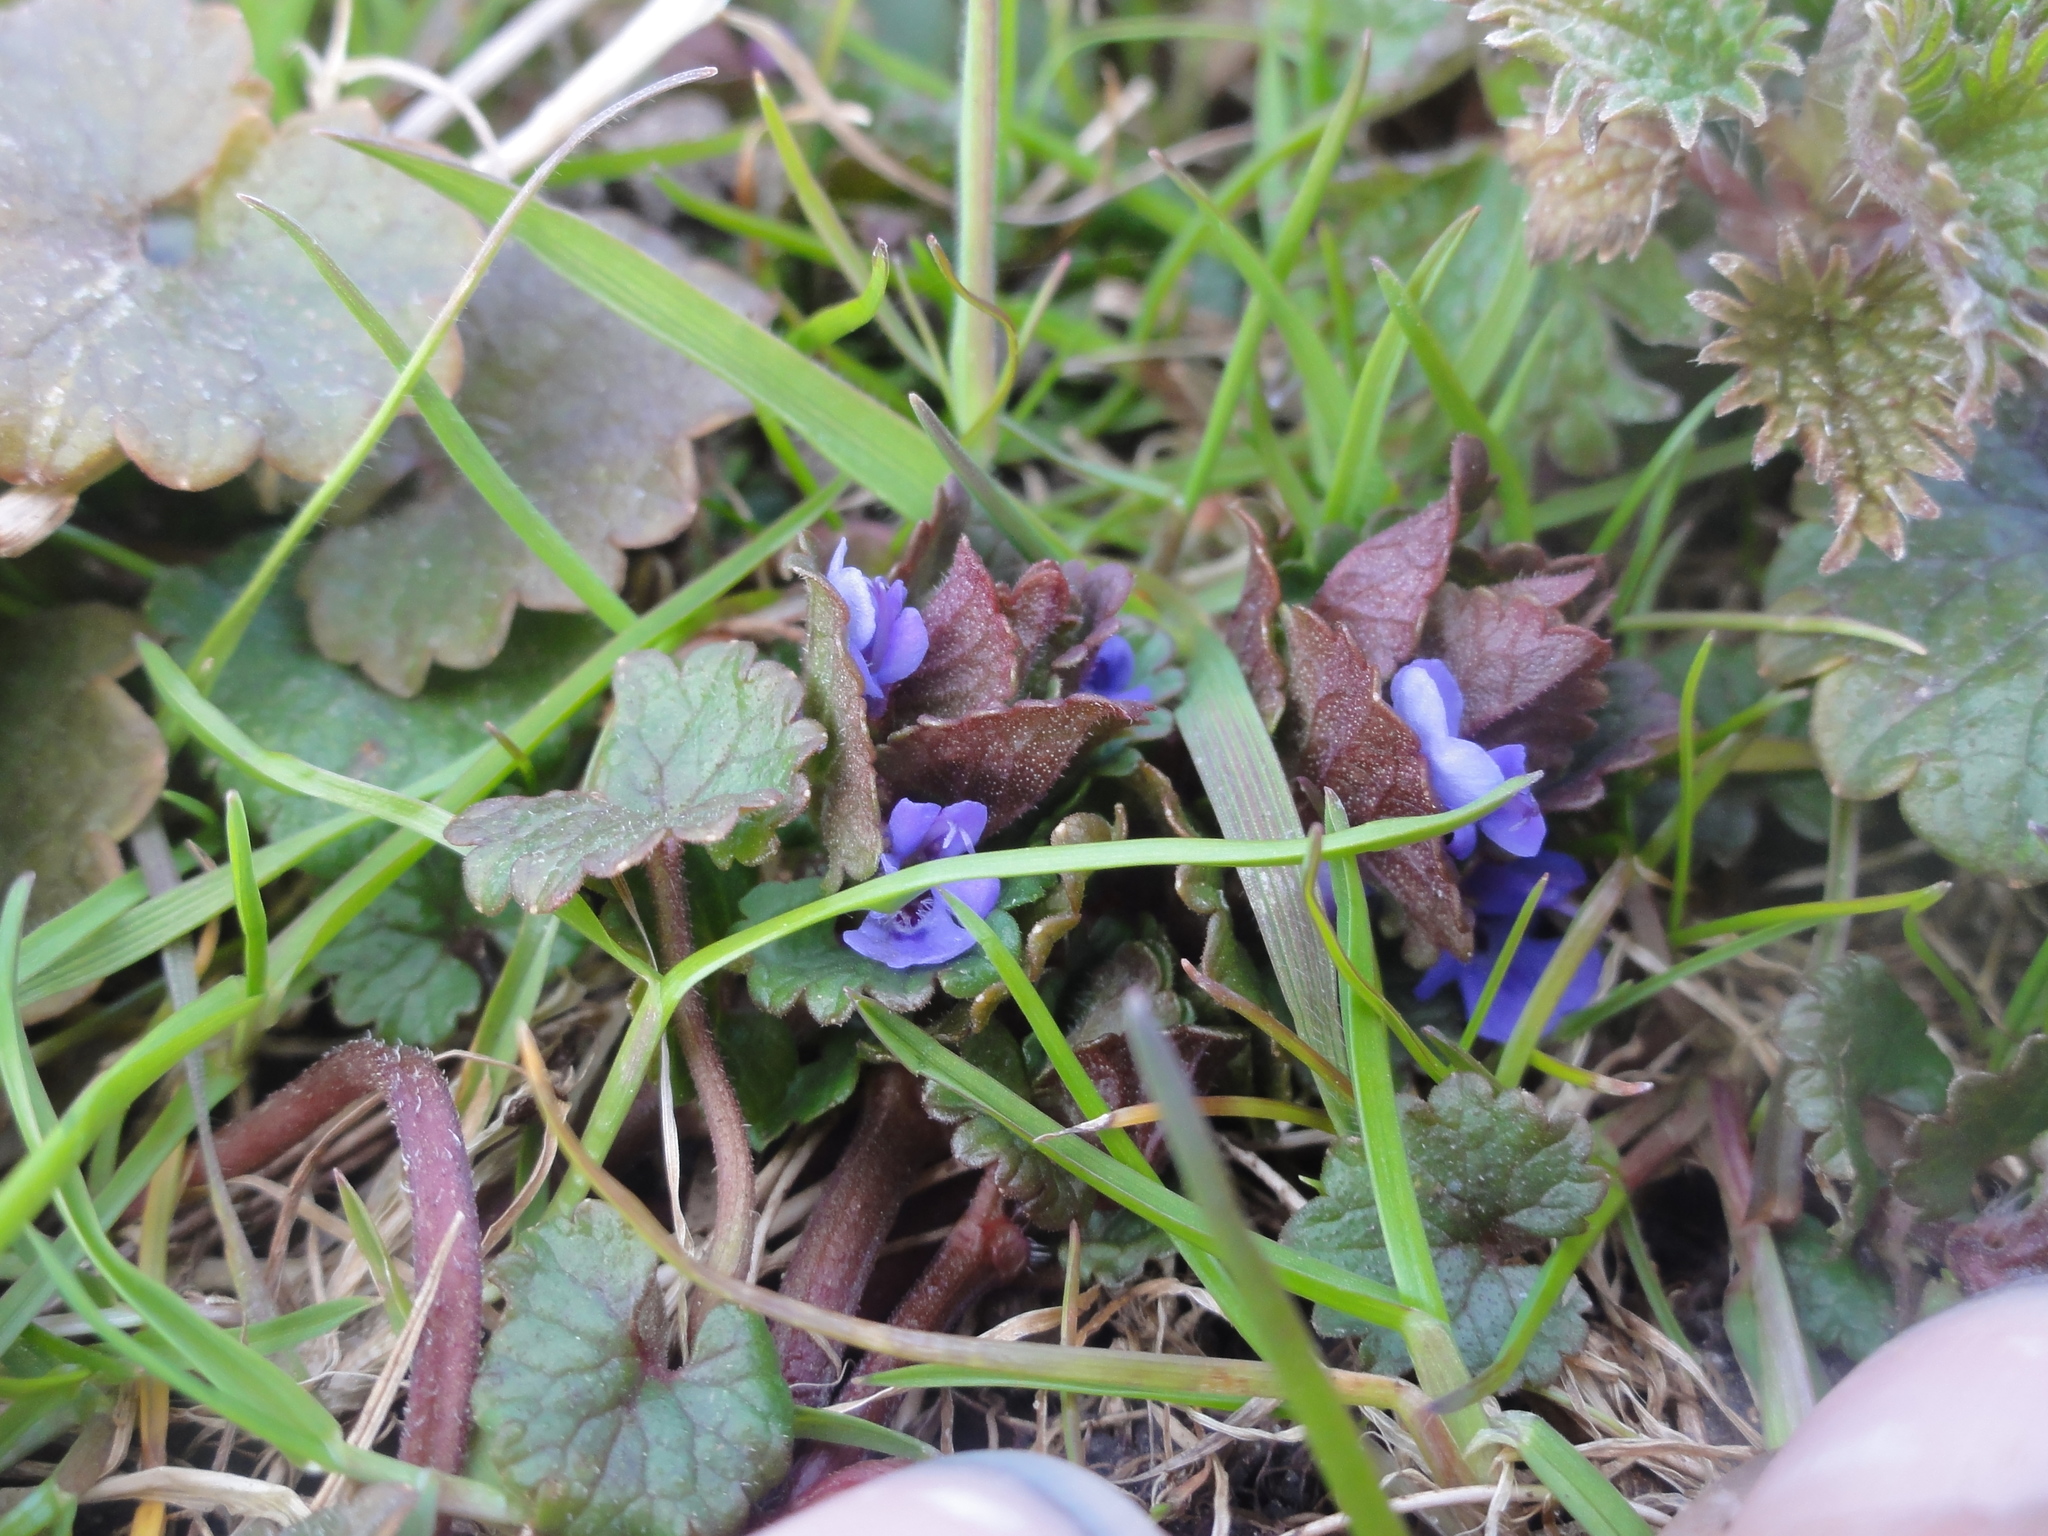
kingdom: Plantae
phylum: Tracheophyta
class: Magnoliopsida
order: Lamiales
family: Lamiaceae
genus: Glechoma
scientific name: Glechoma hederacea
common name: Ground ivy
